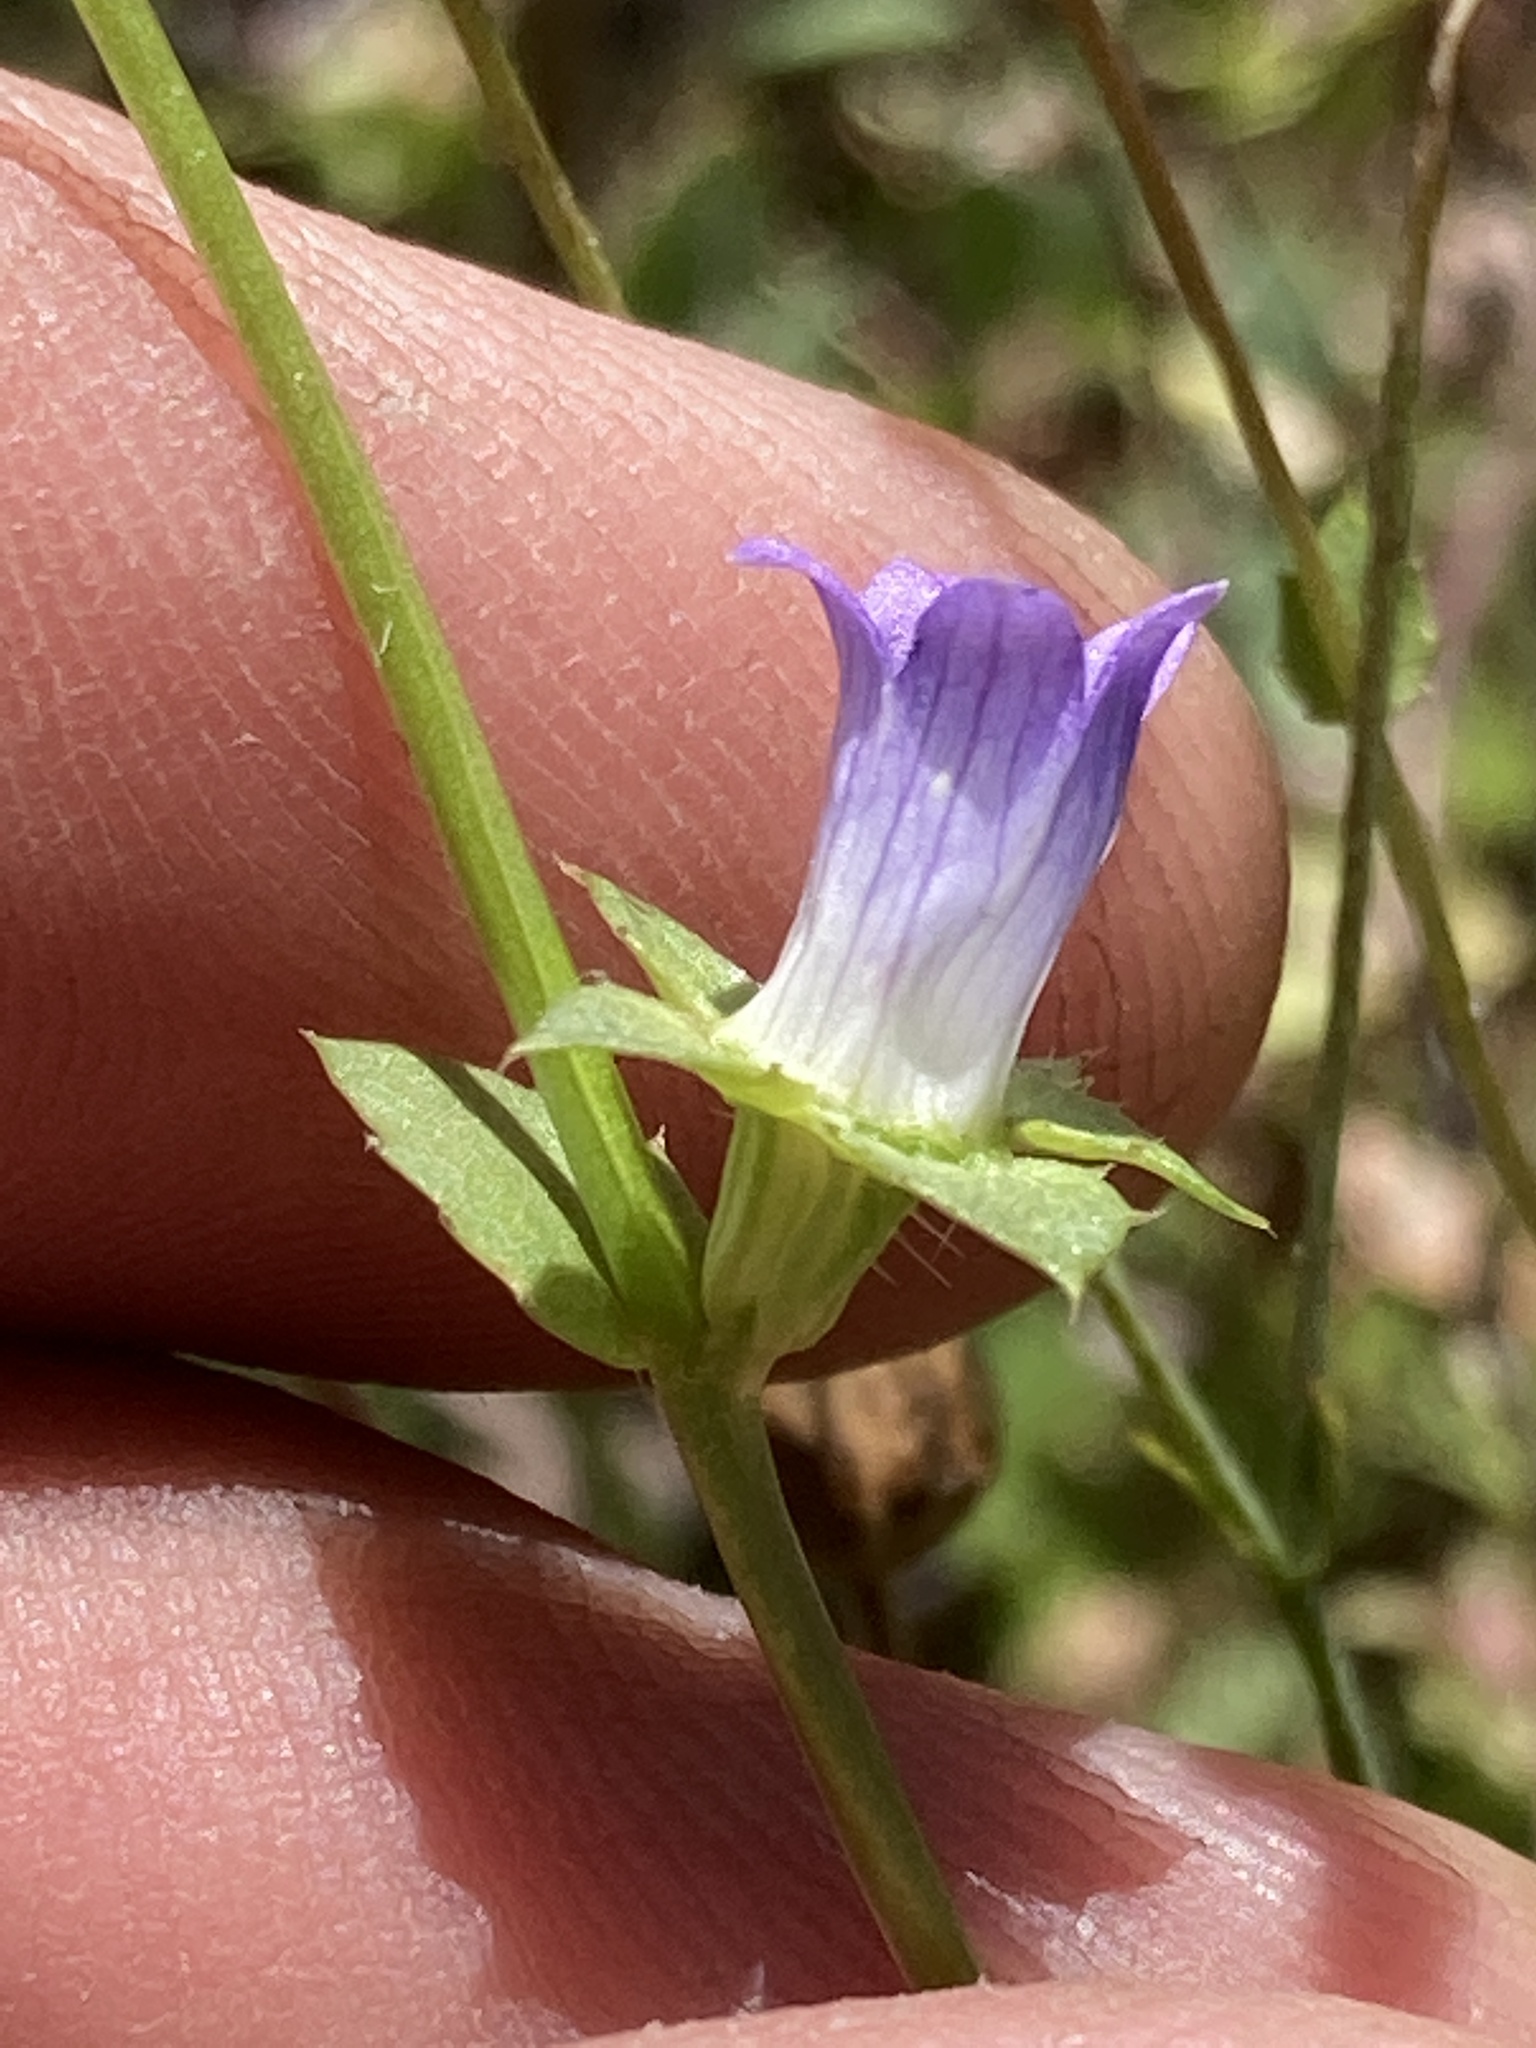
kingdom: Plantae
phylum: Tracheophyta
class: Magnoliopsida
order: Asterales
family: Campanulaceae
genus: Heterocodon
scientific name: Heterocodon rariflorum
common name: Rareflower heterocodon
